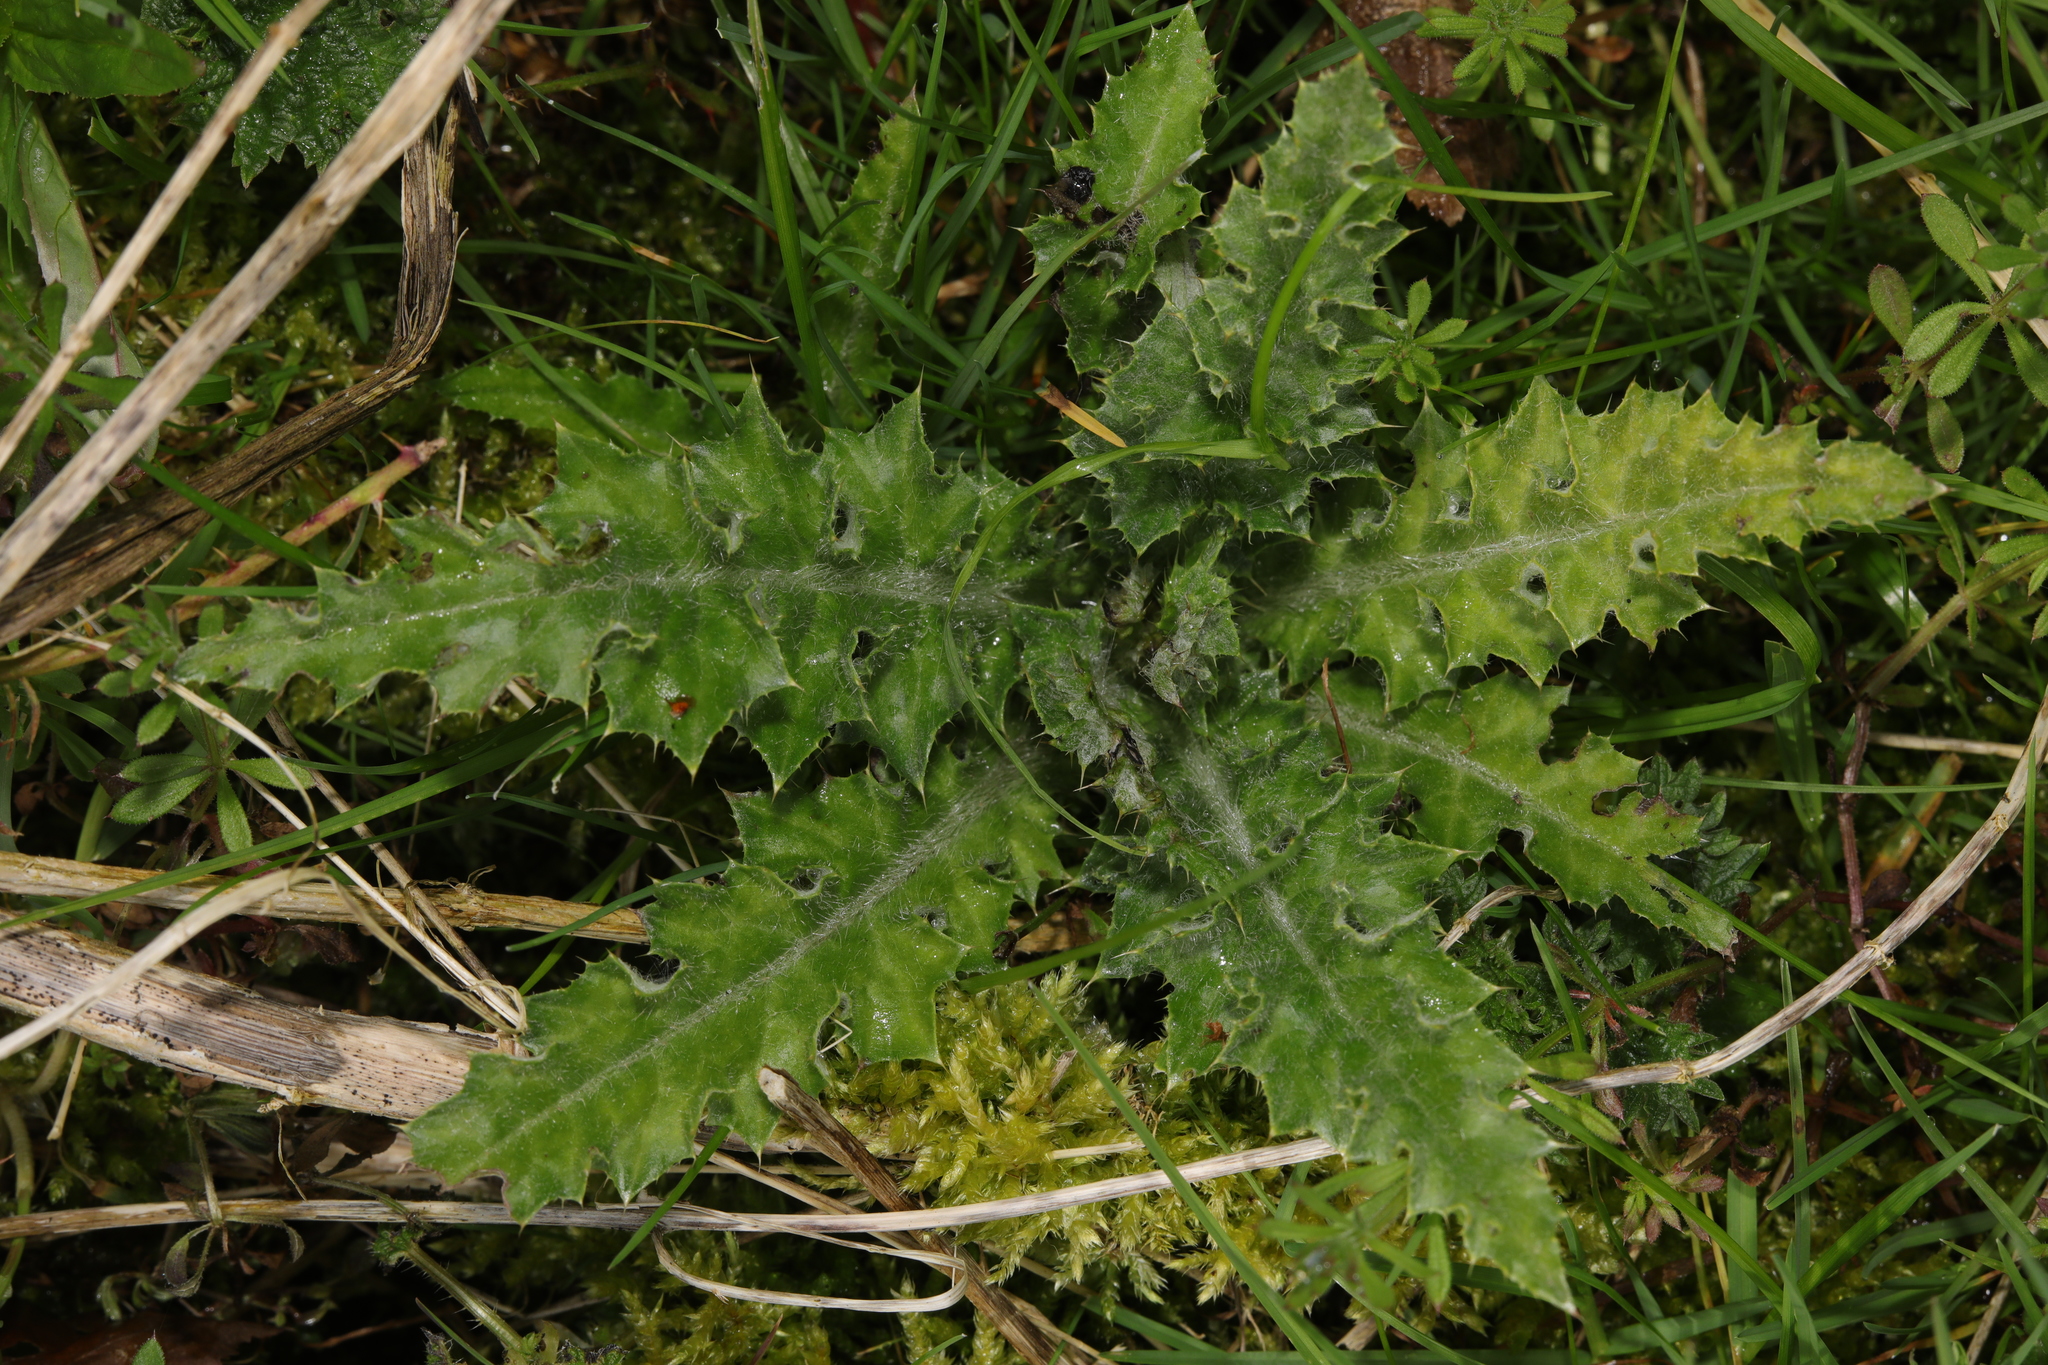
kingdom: Plantae
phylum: Tracheophyta
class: Magnoliopsida
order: Asterales
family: Asteraceae
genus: Cirsium
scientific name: Cirsium palustre
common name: Marsh thistle
